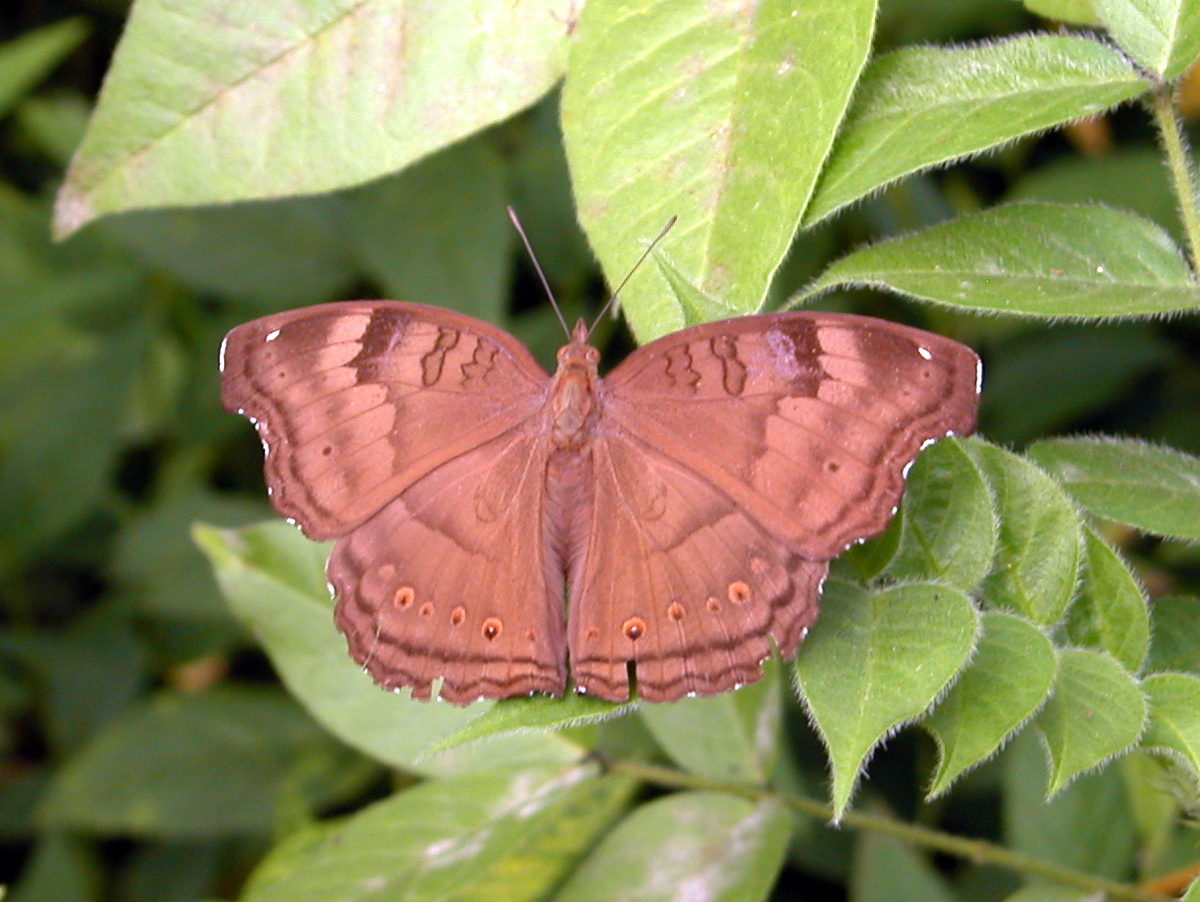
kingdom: Animalia
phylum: Arthropoda
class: Insecta
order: Lepidoptera
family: Nymphalidae
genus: Junonia
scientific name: Junonia iphita
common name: Chocolate pansy
